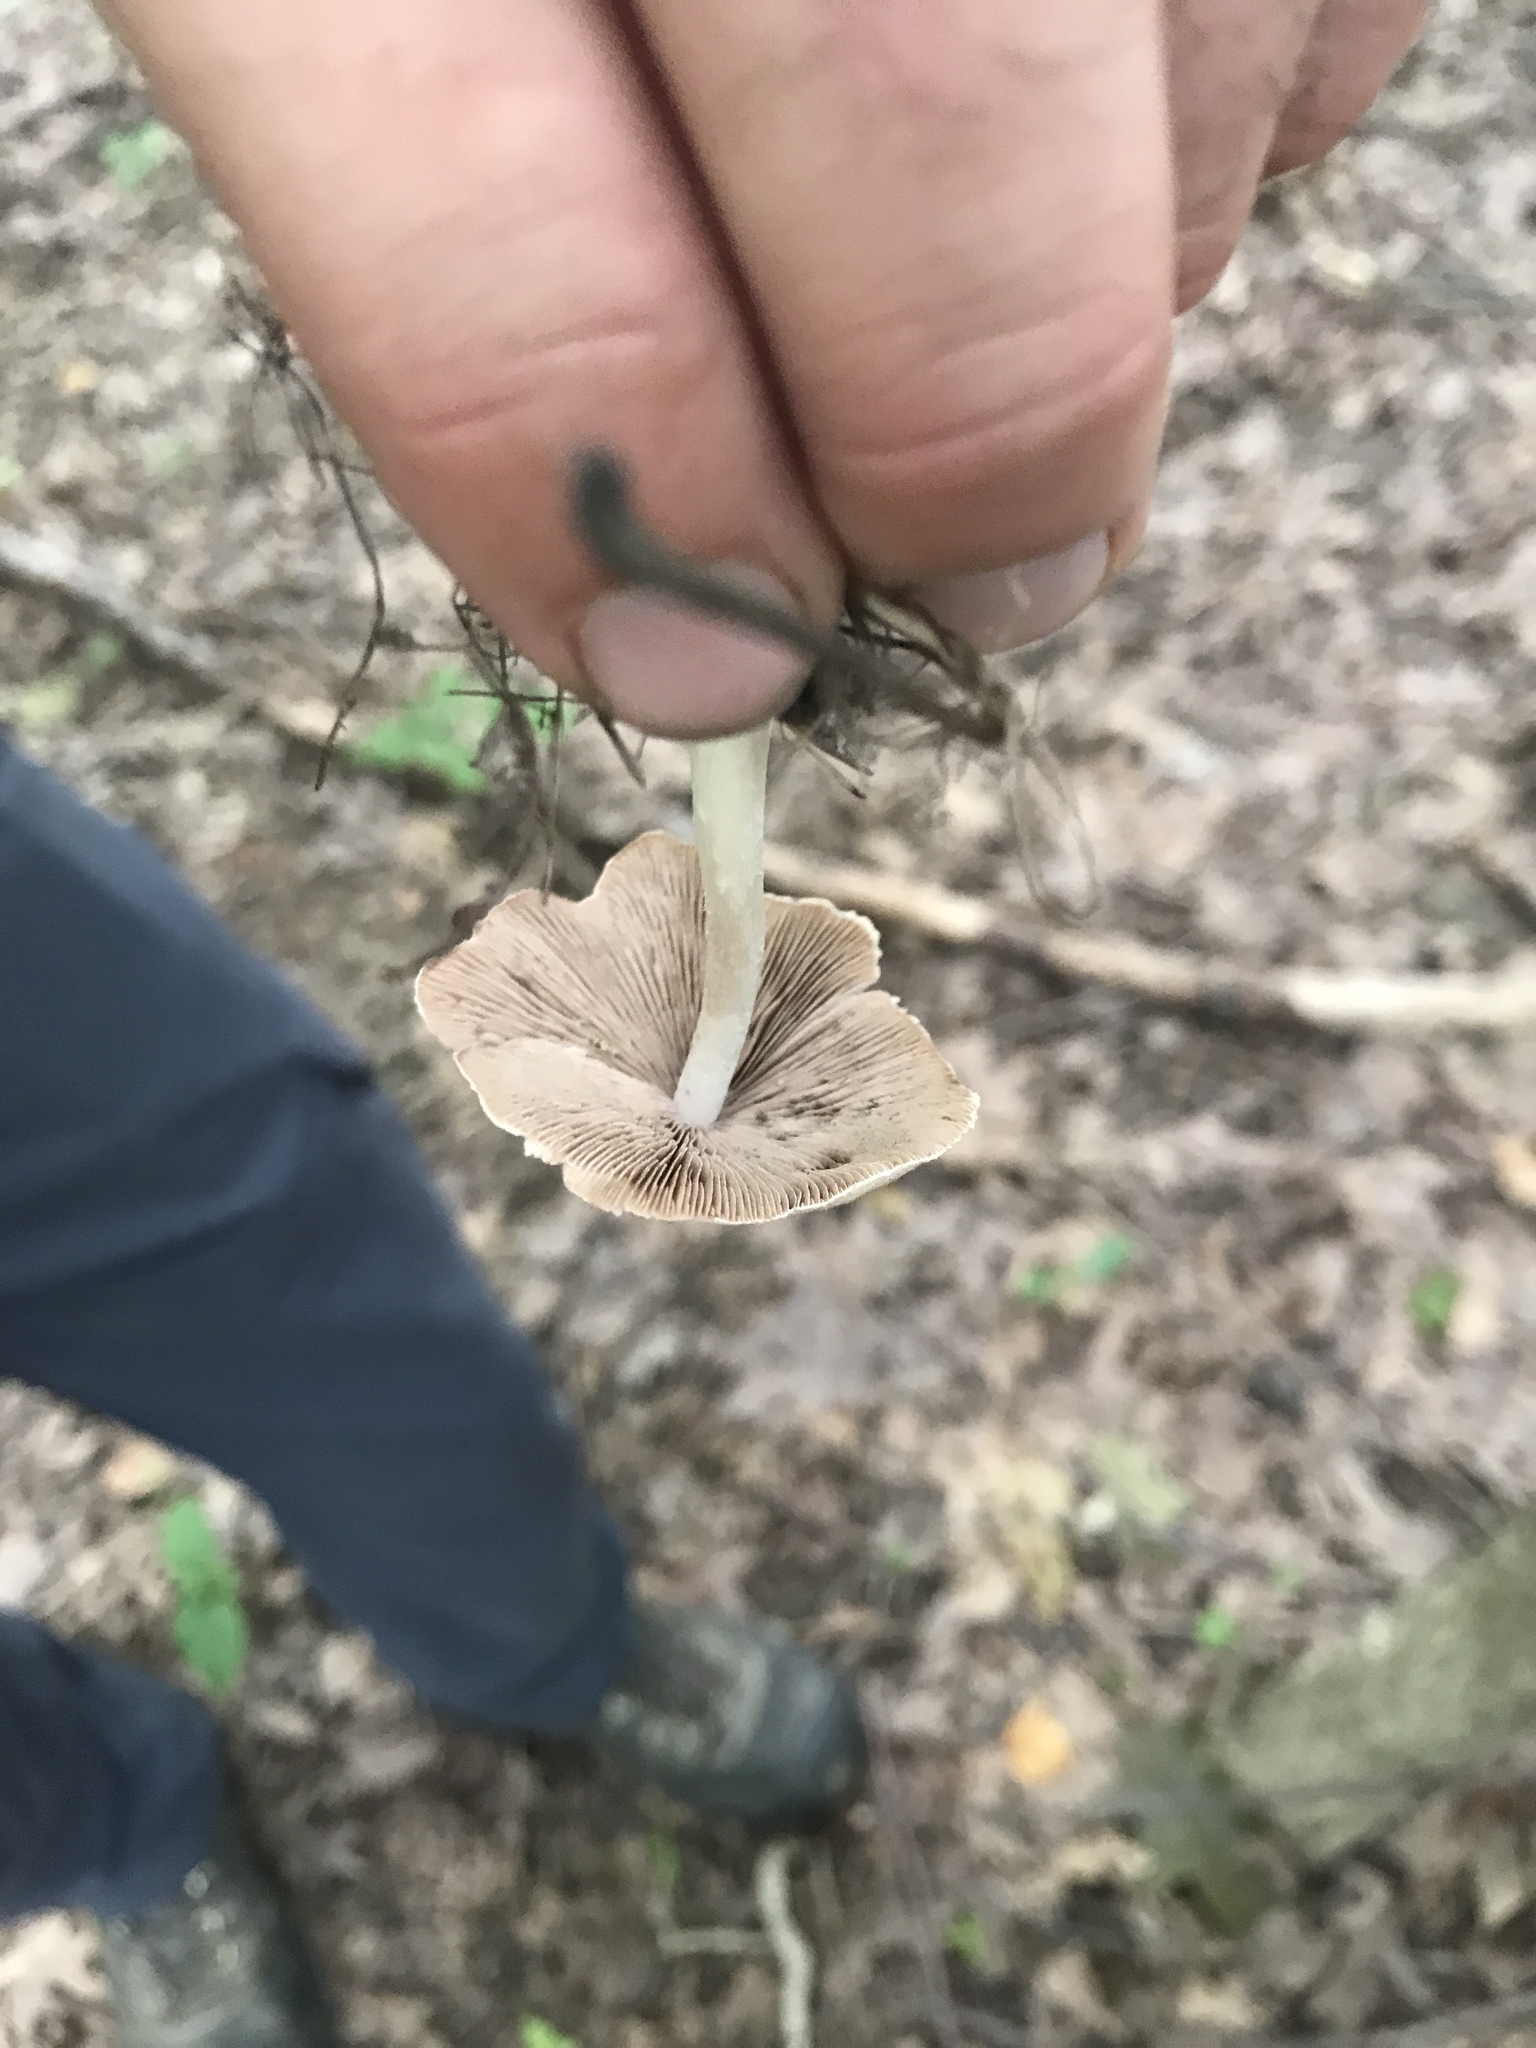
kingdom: Fungi
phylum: Basidiomycota
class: Agaricomycetes
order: Agaricales
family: Psathyrellaceae
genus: Candolleomyces
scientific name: Candolleomyces candolleanus
